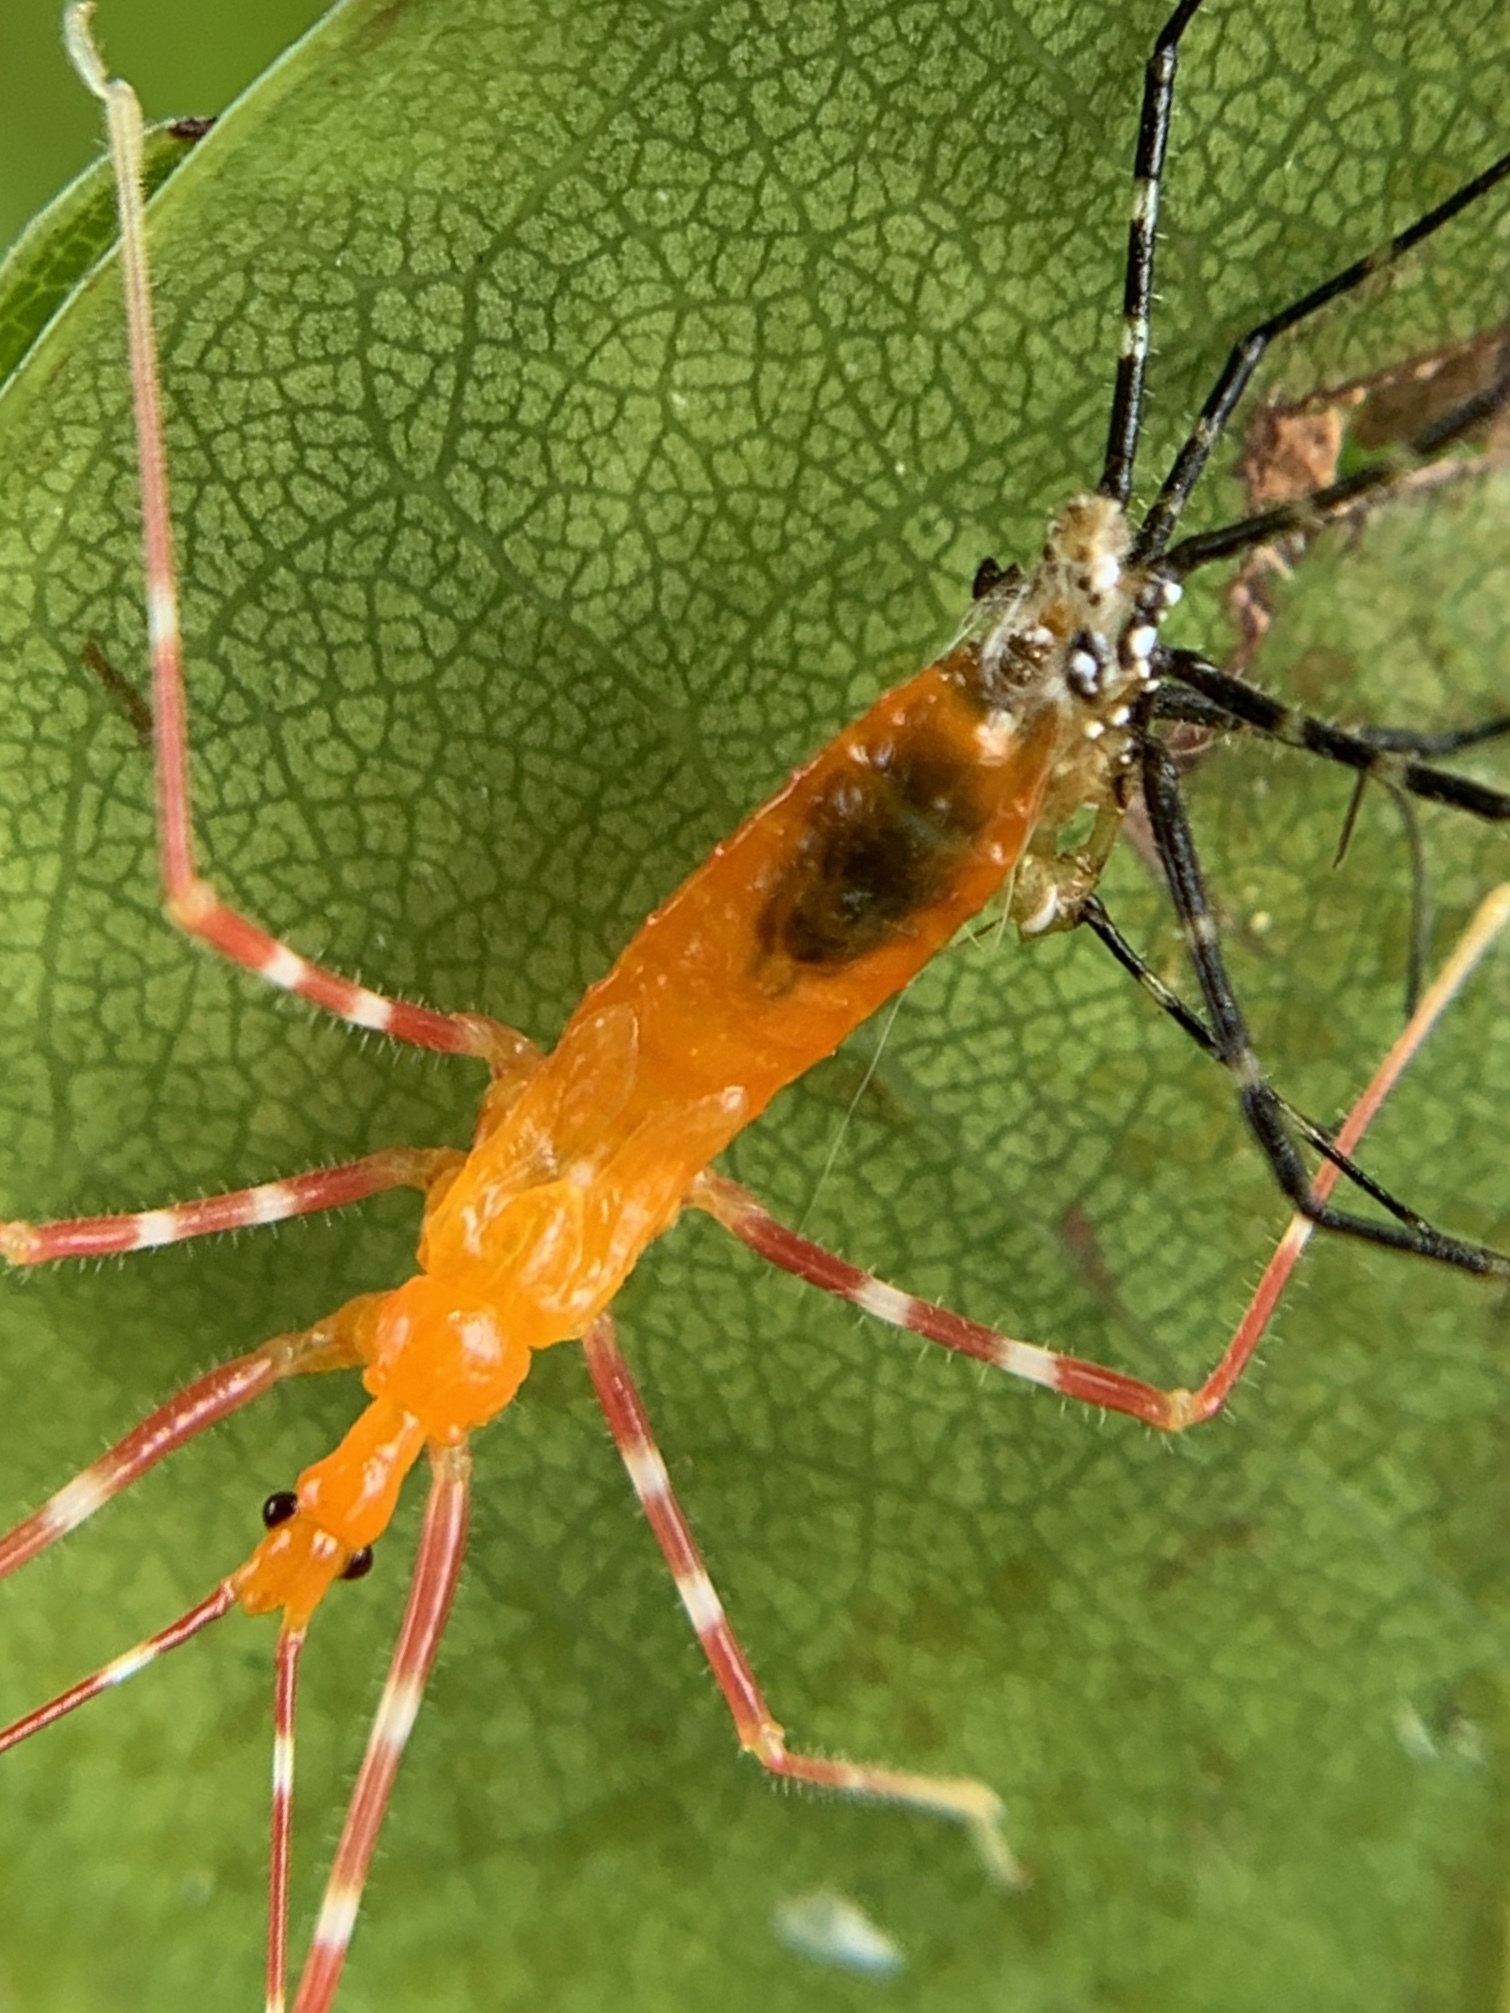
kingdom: Animalia
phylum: Arthropoda
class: Insecta
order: Hemiptera
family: Reduviidae
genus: Zelus
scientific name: Zelus longipes
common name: Milkweed assassin bug
